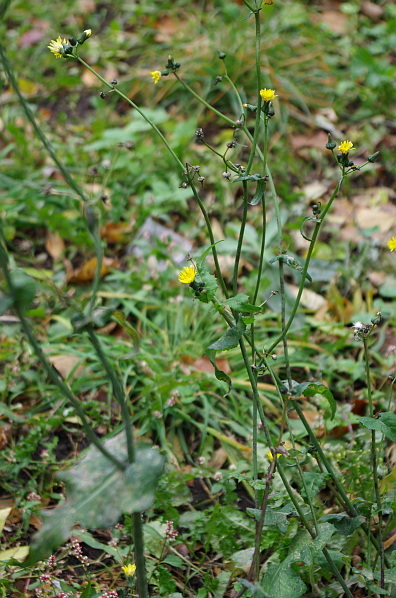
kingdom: Plantae
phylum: Tracheophyta
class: Magnoliopsida
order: Asterales
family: Asteraceae
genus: Sonchus
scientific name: Sonchus oleraceus
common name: Common sowthistle
